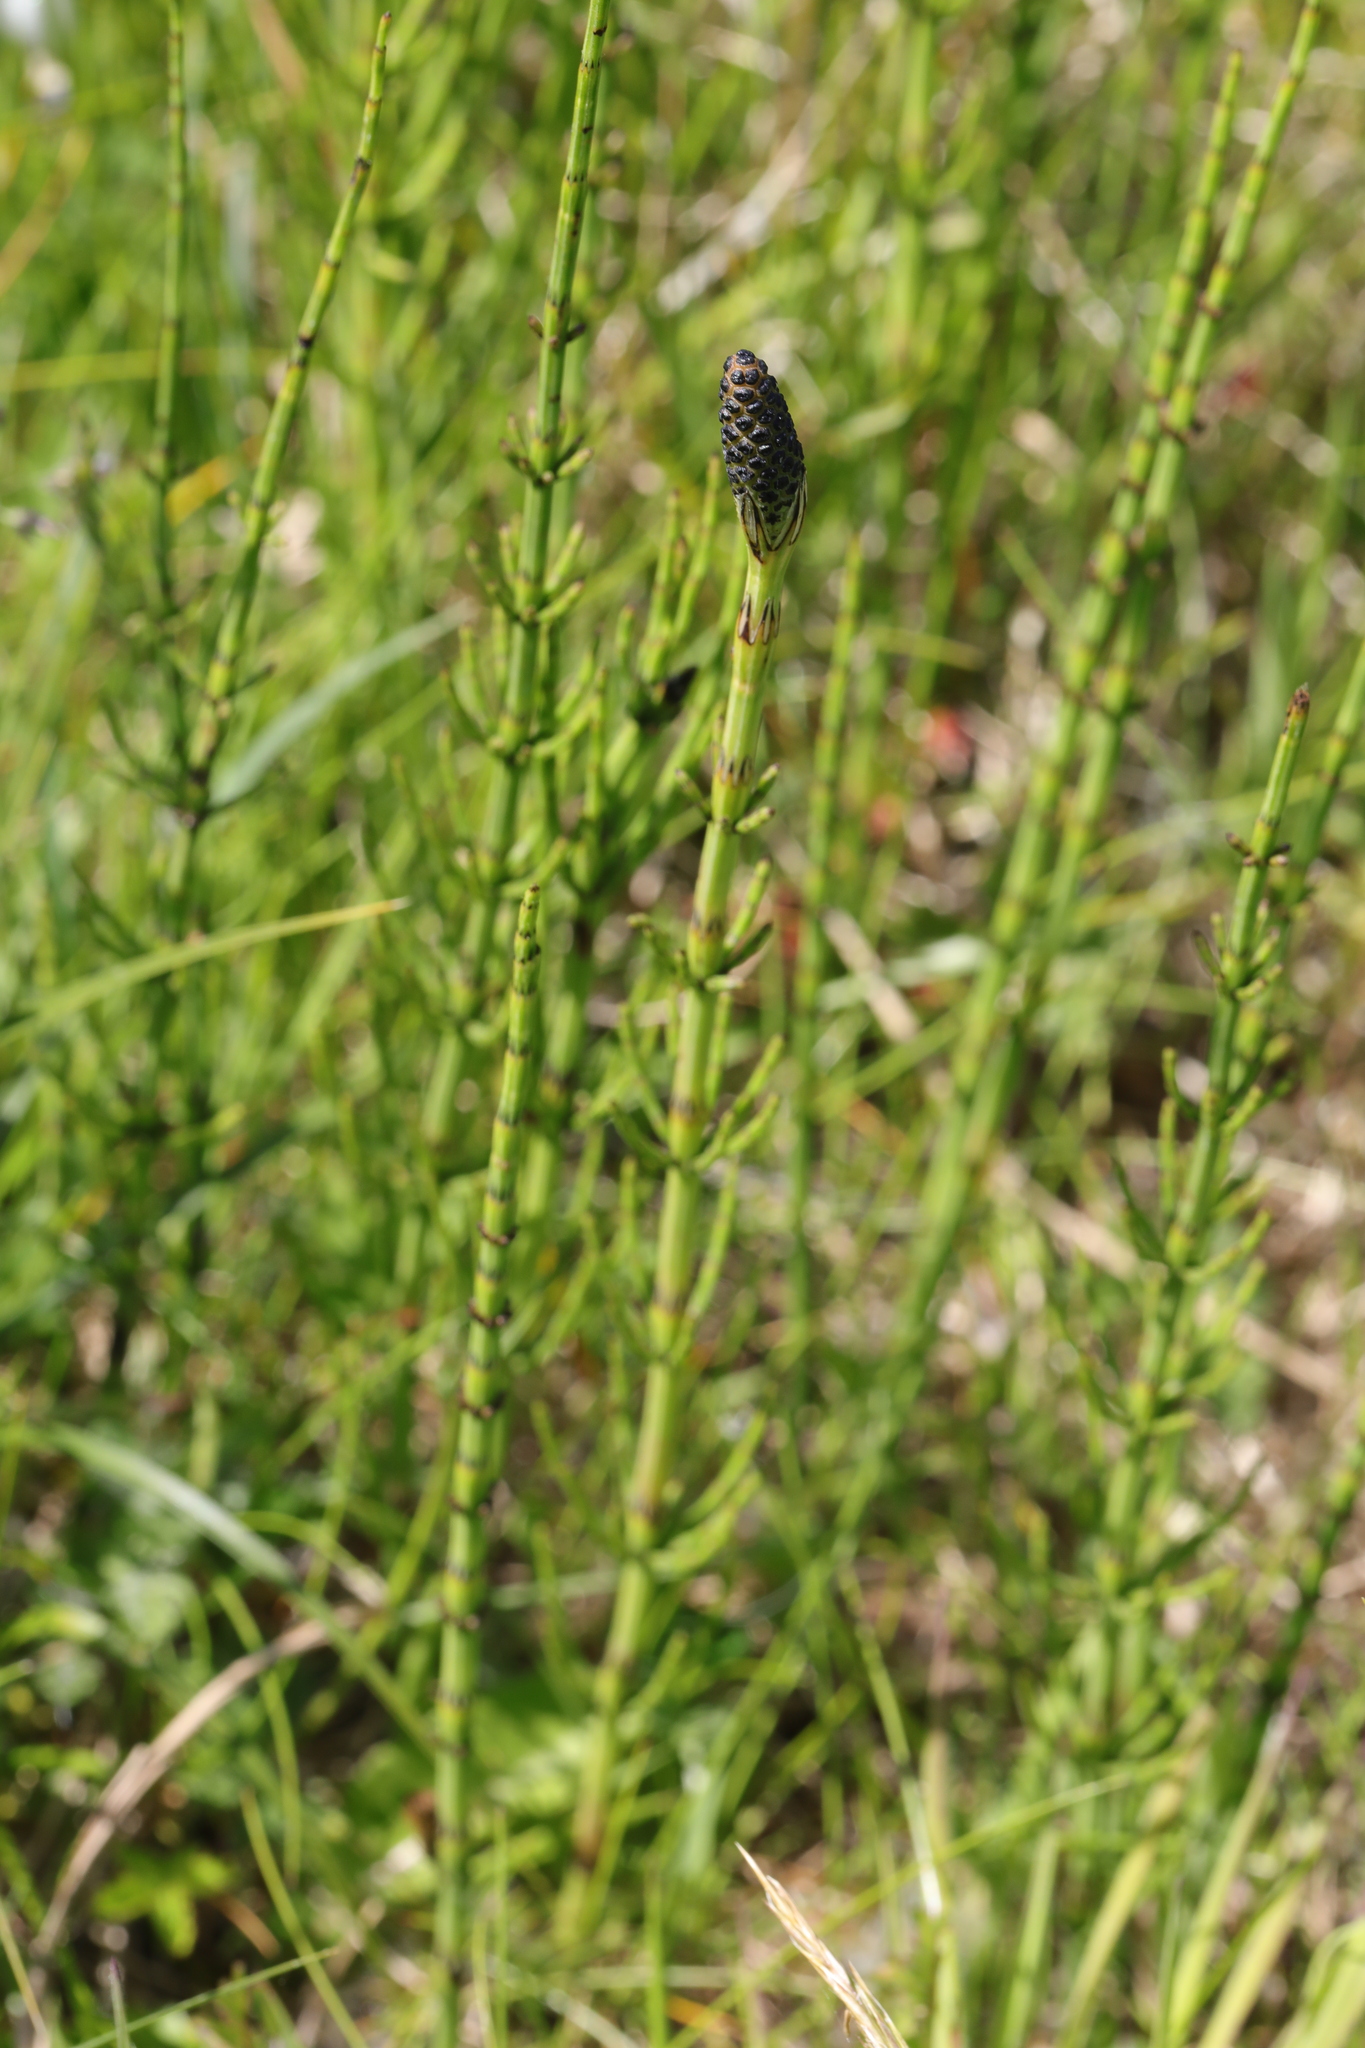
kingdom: Plantae
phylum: Tracheophyta
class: Polypodiopsida
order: Equisetales
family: Equisetaceae
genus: Equisetum
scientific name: Equisetum palustre
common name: Marsh horsetail
